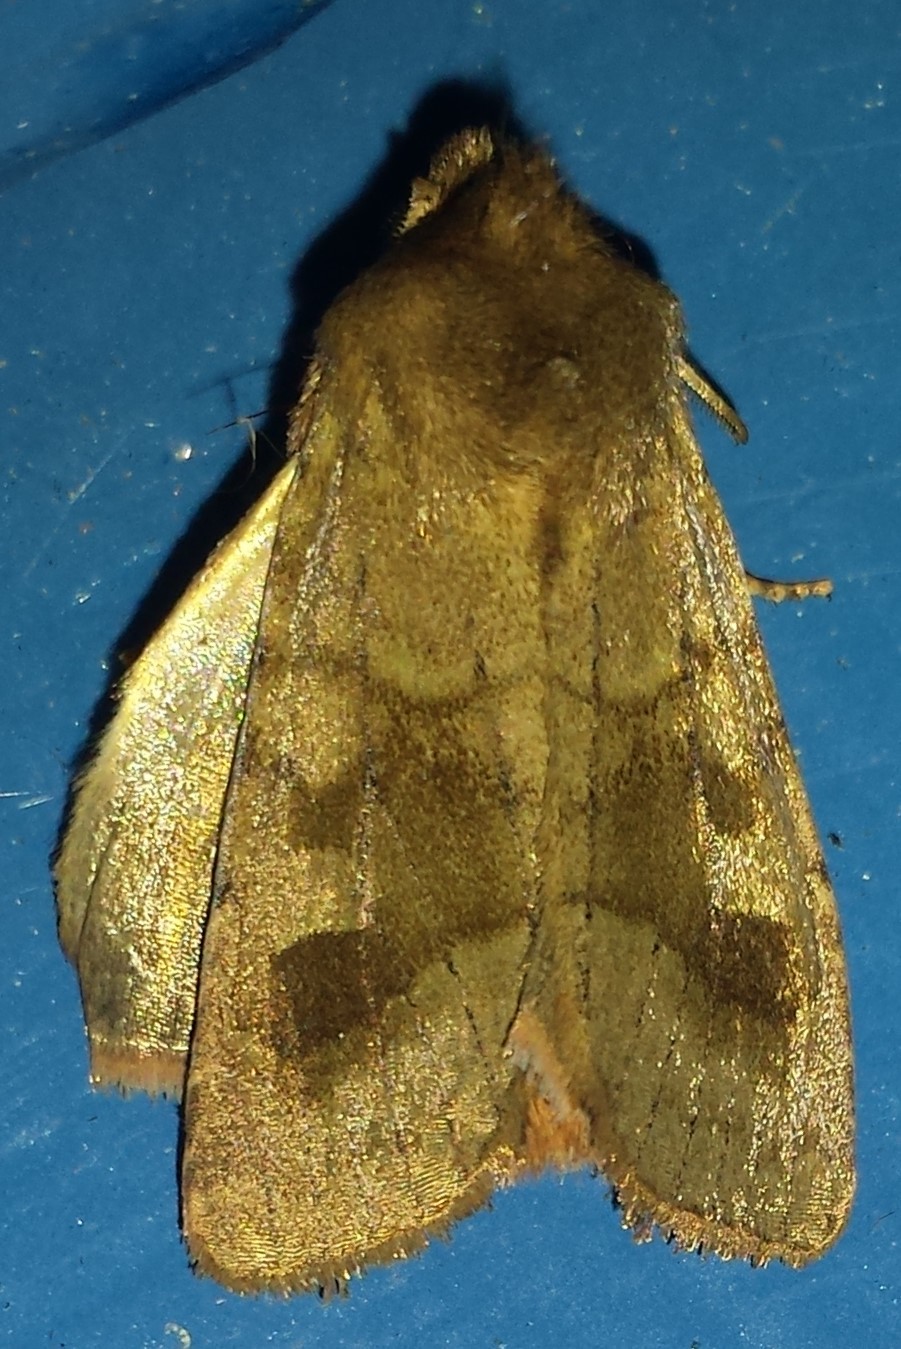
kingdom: Animalia
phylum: Arthropoda
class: Insecta
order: Lepidoptera
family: Noctuidae
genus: Nephelodes
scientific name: Nephelodes minians
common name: Bronzed cutworm
